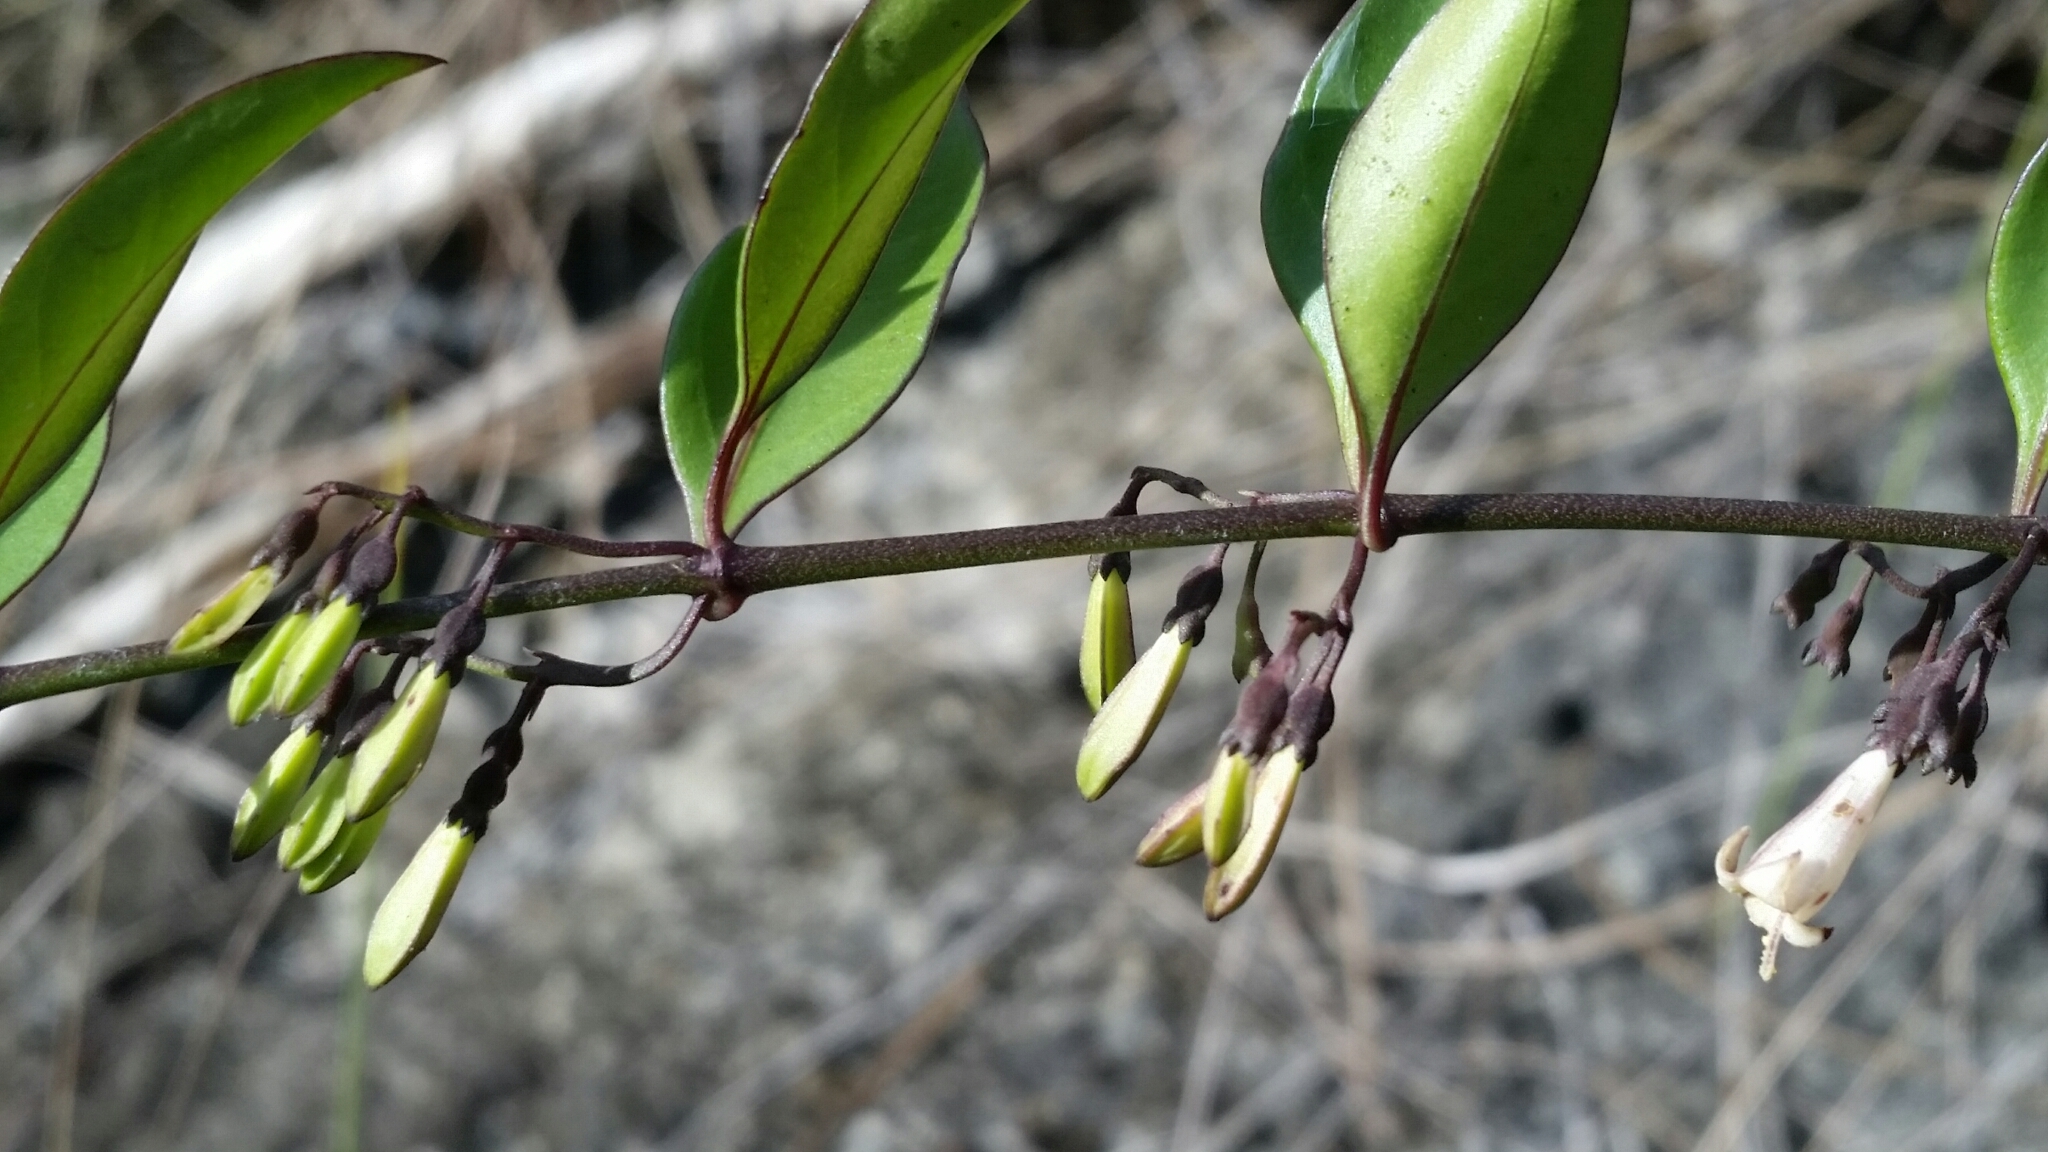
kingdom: Plantae
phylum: Tracheophyta
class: Magnoliopsida
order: Gentianales
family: Rubiaceae
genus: Chiococca
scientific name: Chiococca alba
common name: Snowberry
